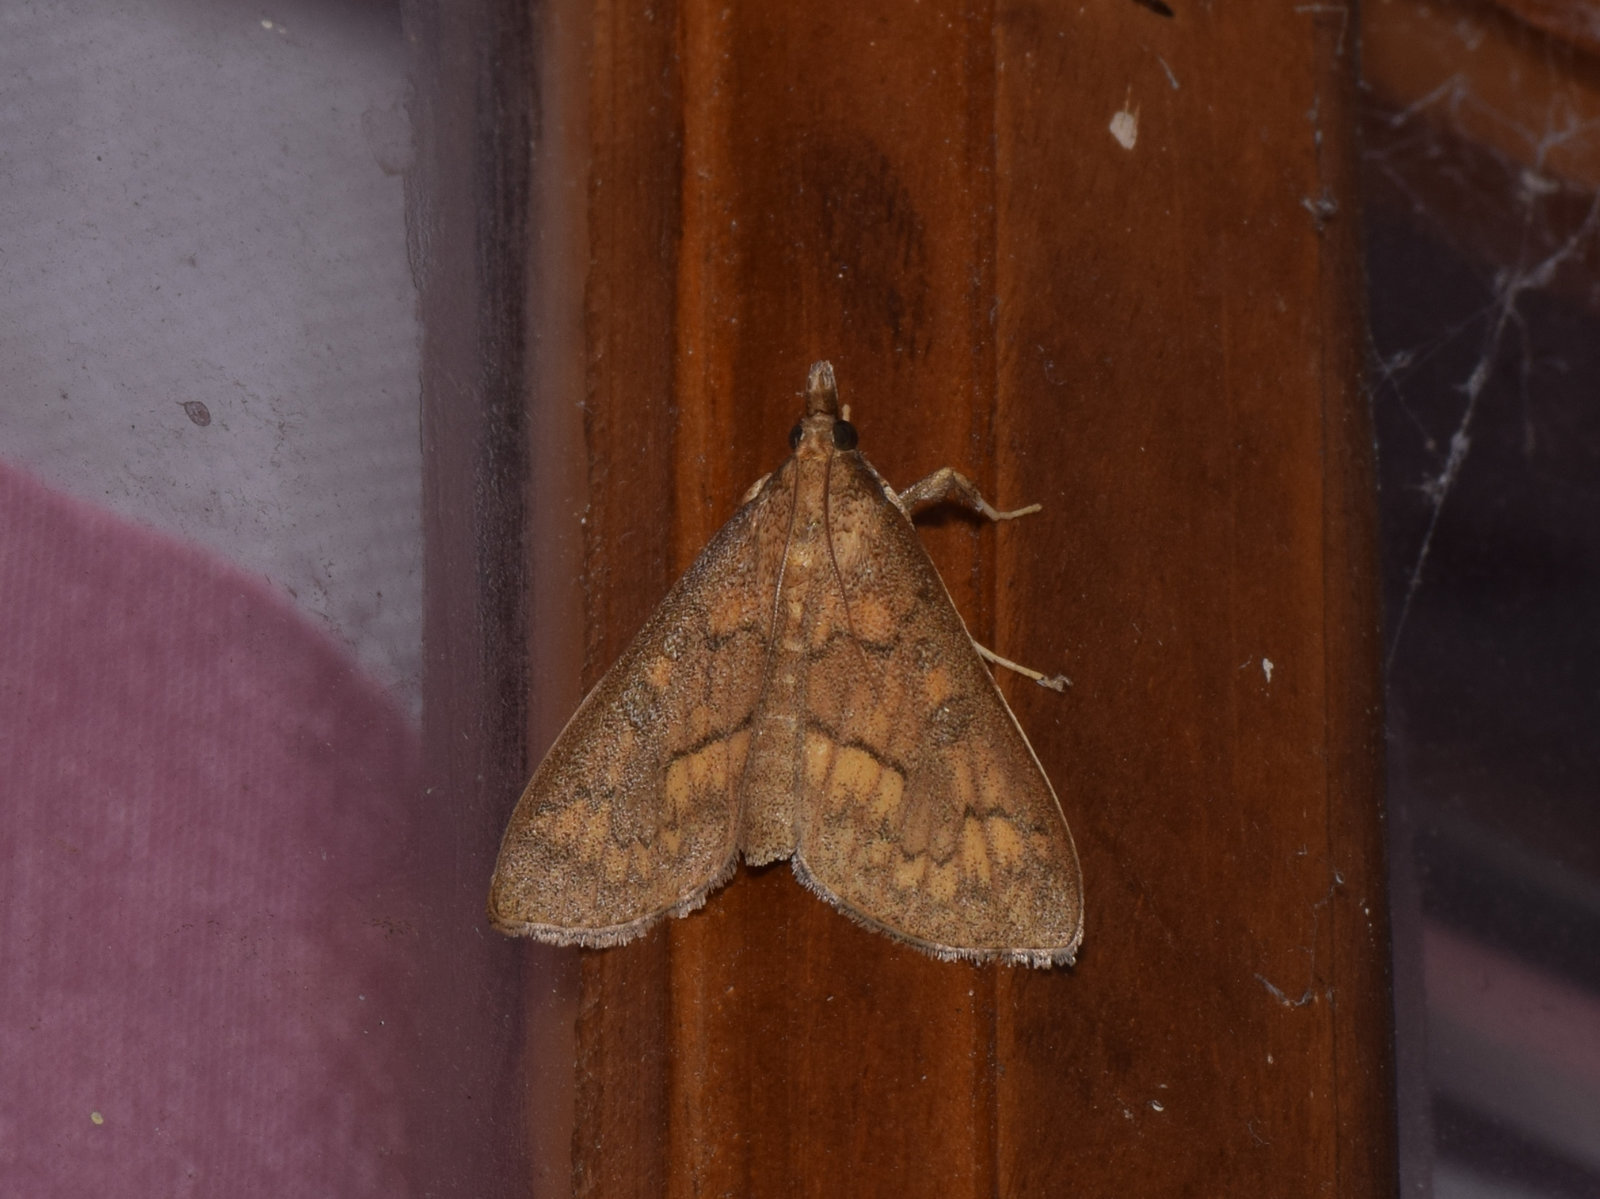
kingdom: Animalia
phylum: Arthropoda
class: Insecta
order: Lepidoptera
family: Crambidae
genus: Pachynoa
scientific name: Pachynoa
